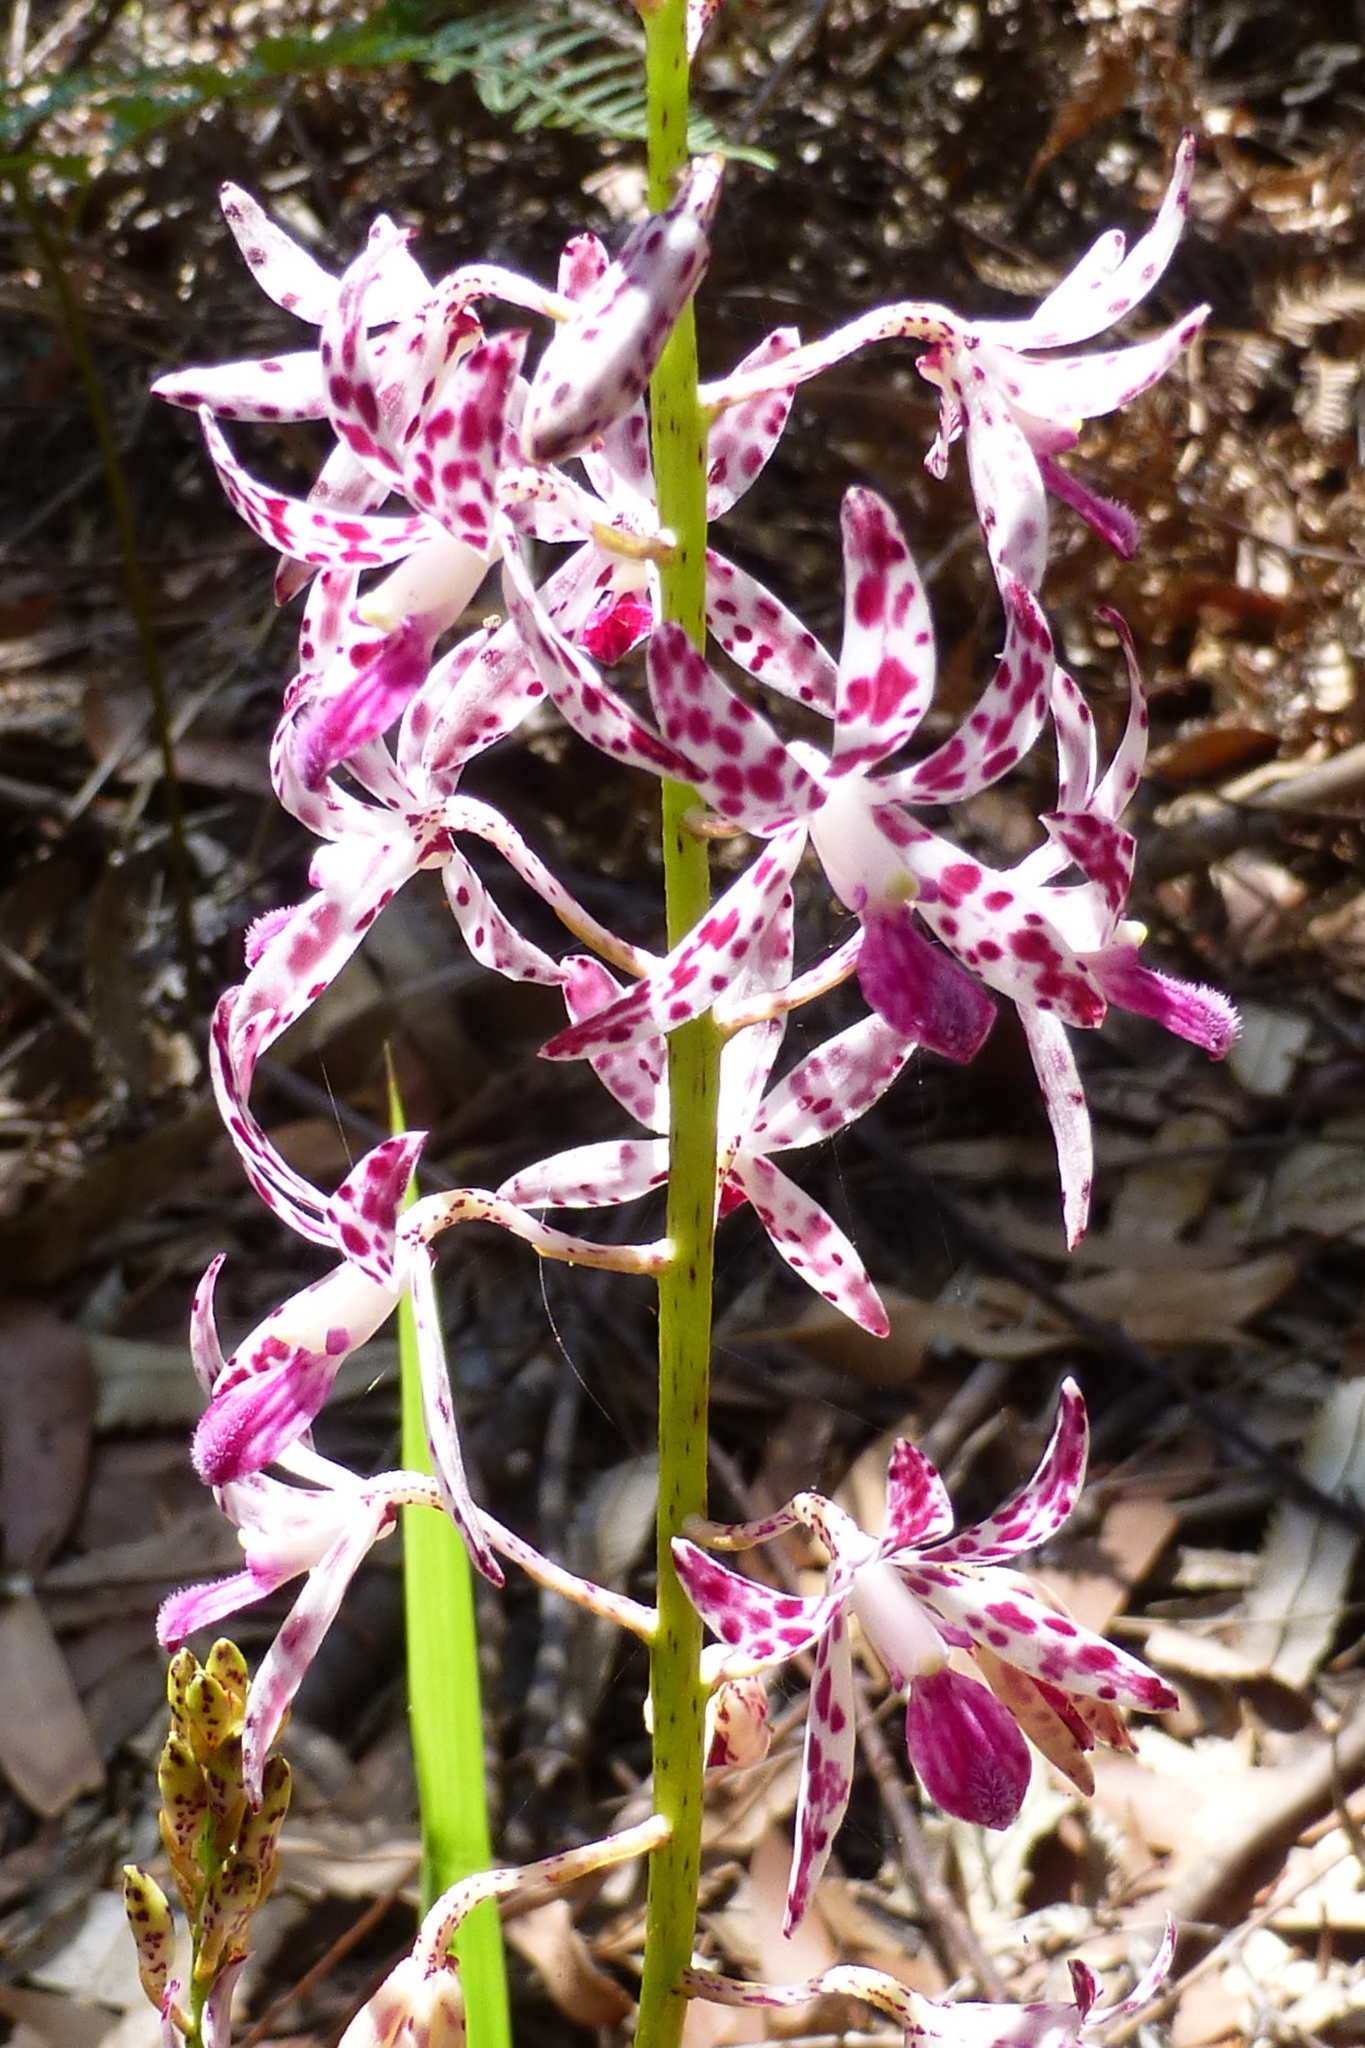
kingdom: Plantae
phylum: Tracheophyta
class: Liliopsida
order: Asparagales
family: Orchidaceae
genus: Dipodium
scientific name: Dipodium variegatum
